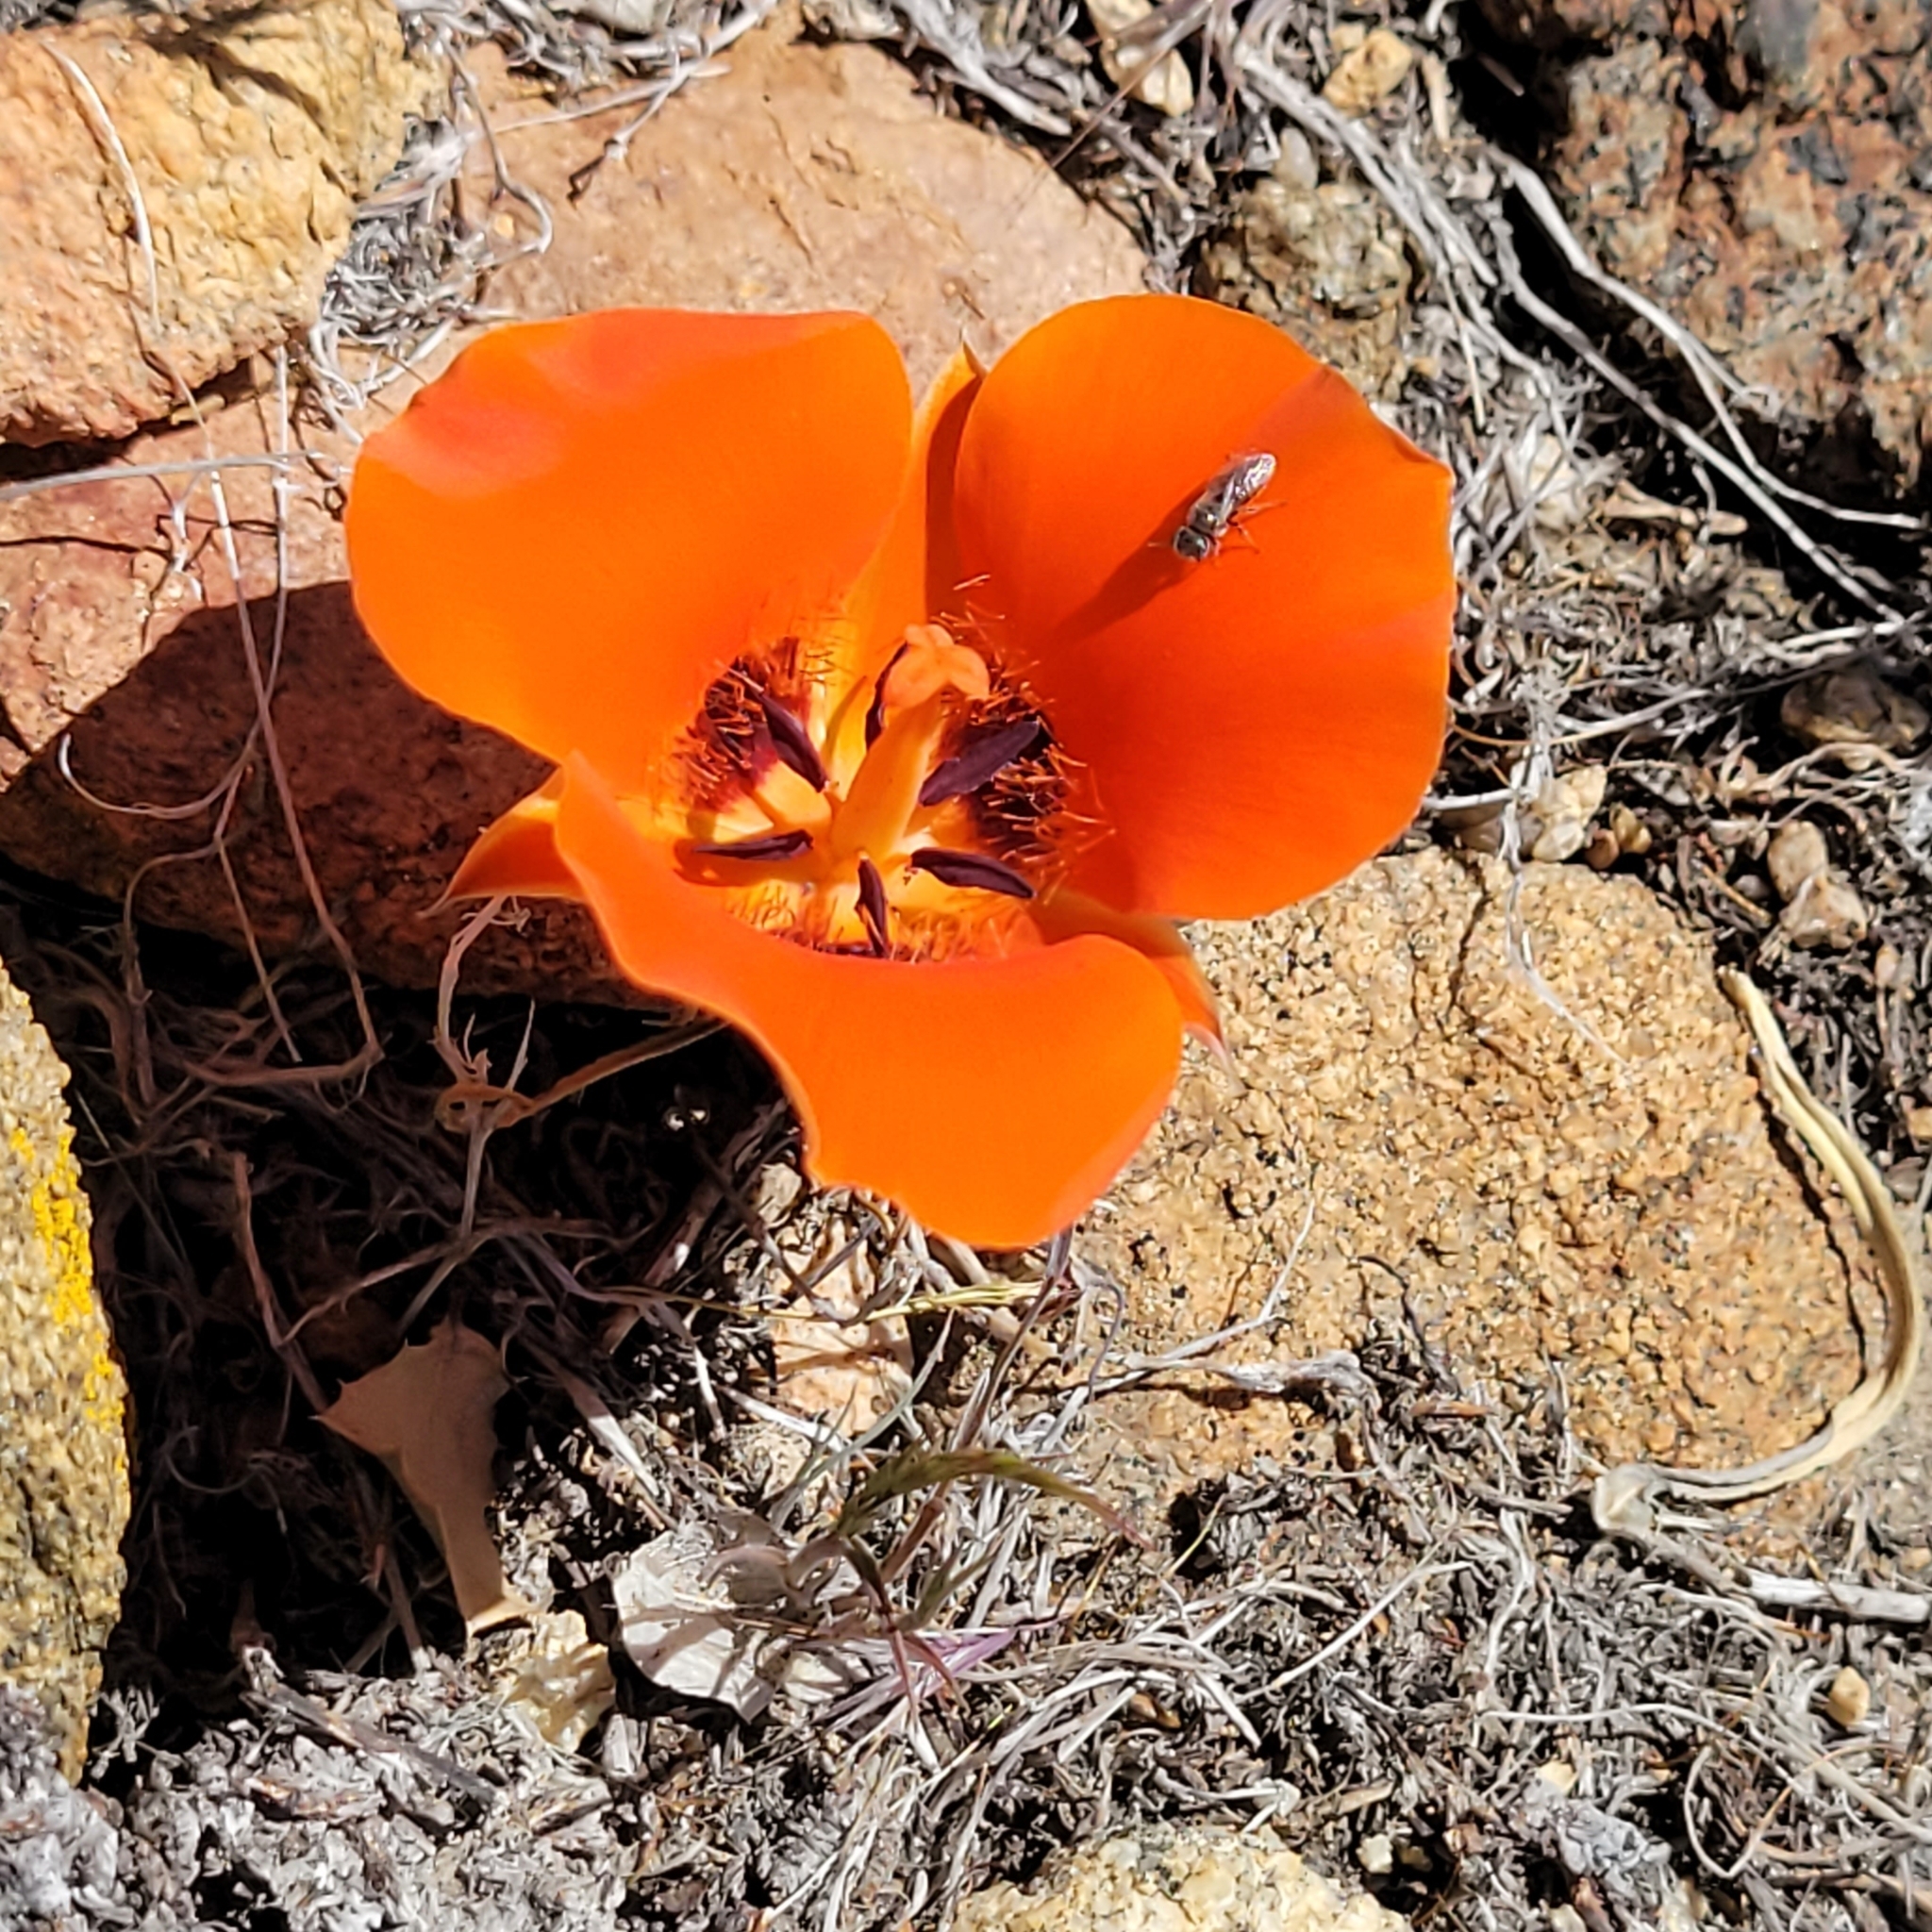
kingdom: Plantae
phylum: Tracheophyta
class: Liliopsida
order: Liliales
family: Liliaceae
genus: Calochortus
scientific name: Calochortus kennedyi
